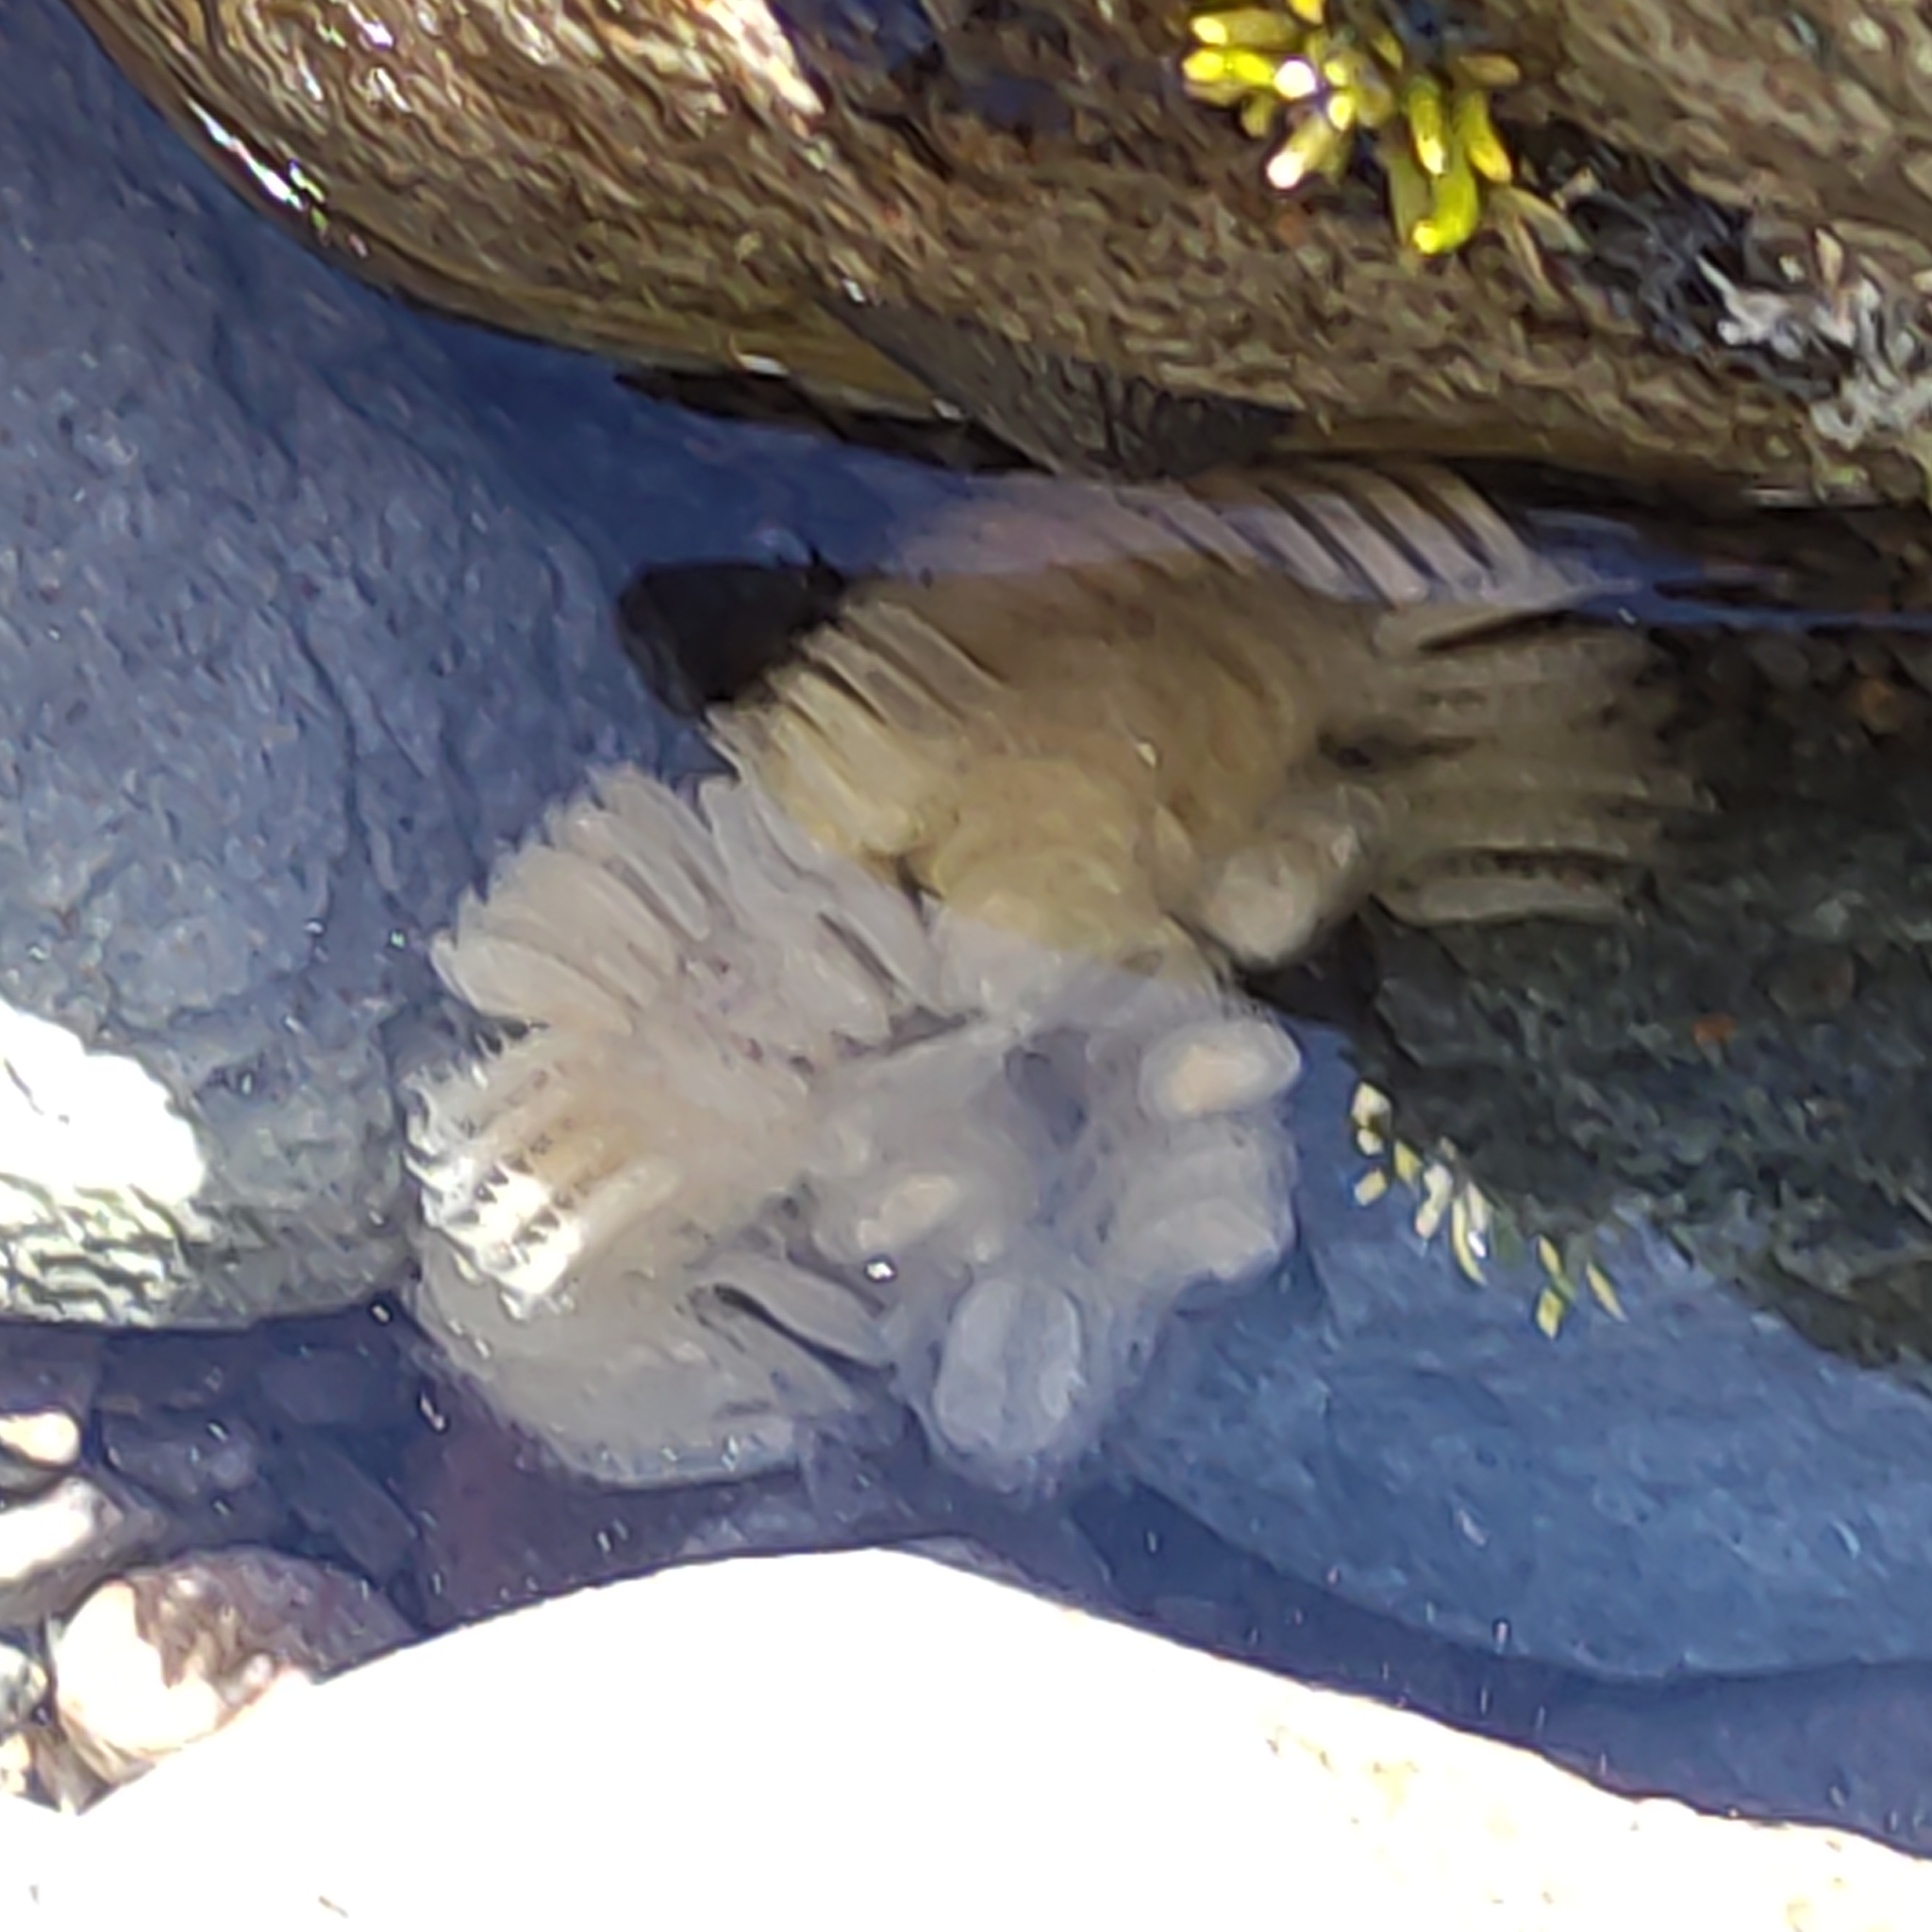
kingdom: Animalia
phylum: Mollusca
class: Gastropoda
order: Neogastropoda
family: Muricidae
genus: Poirieria
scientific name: Poirieria zelandica
